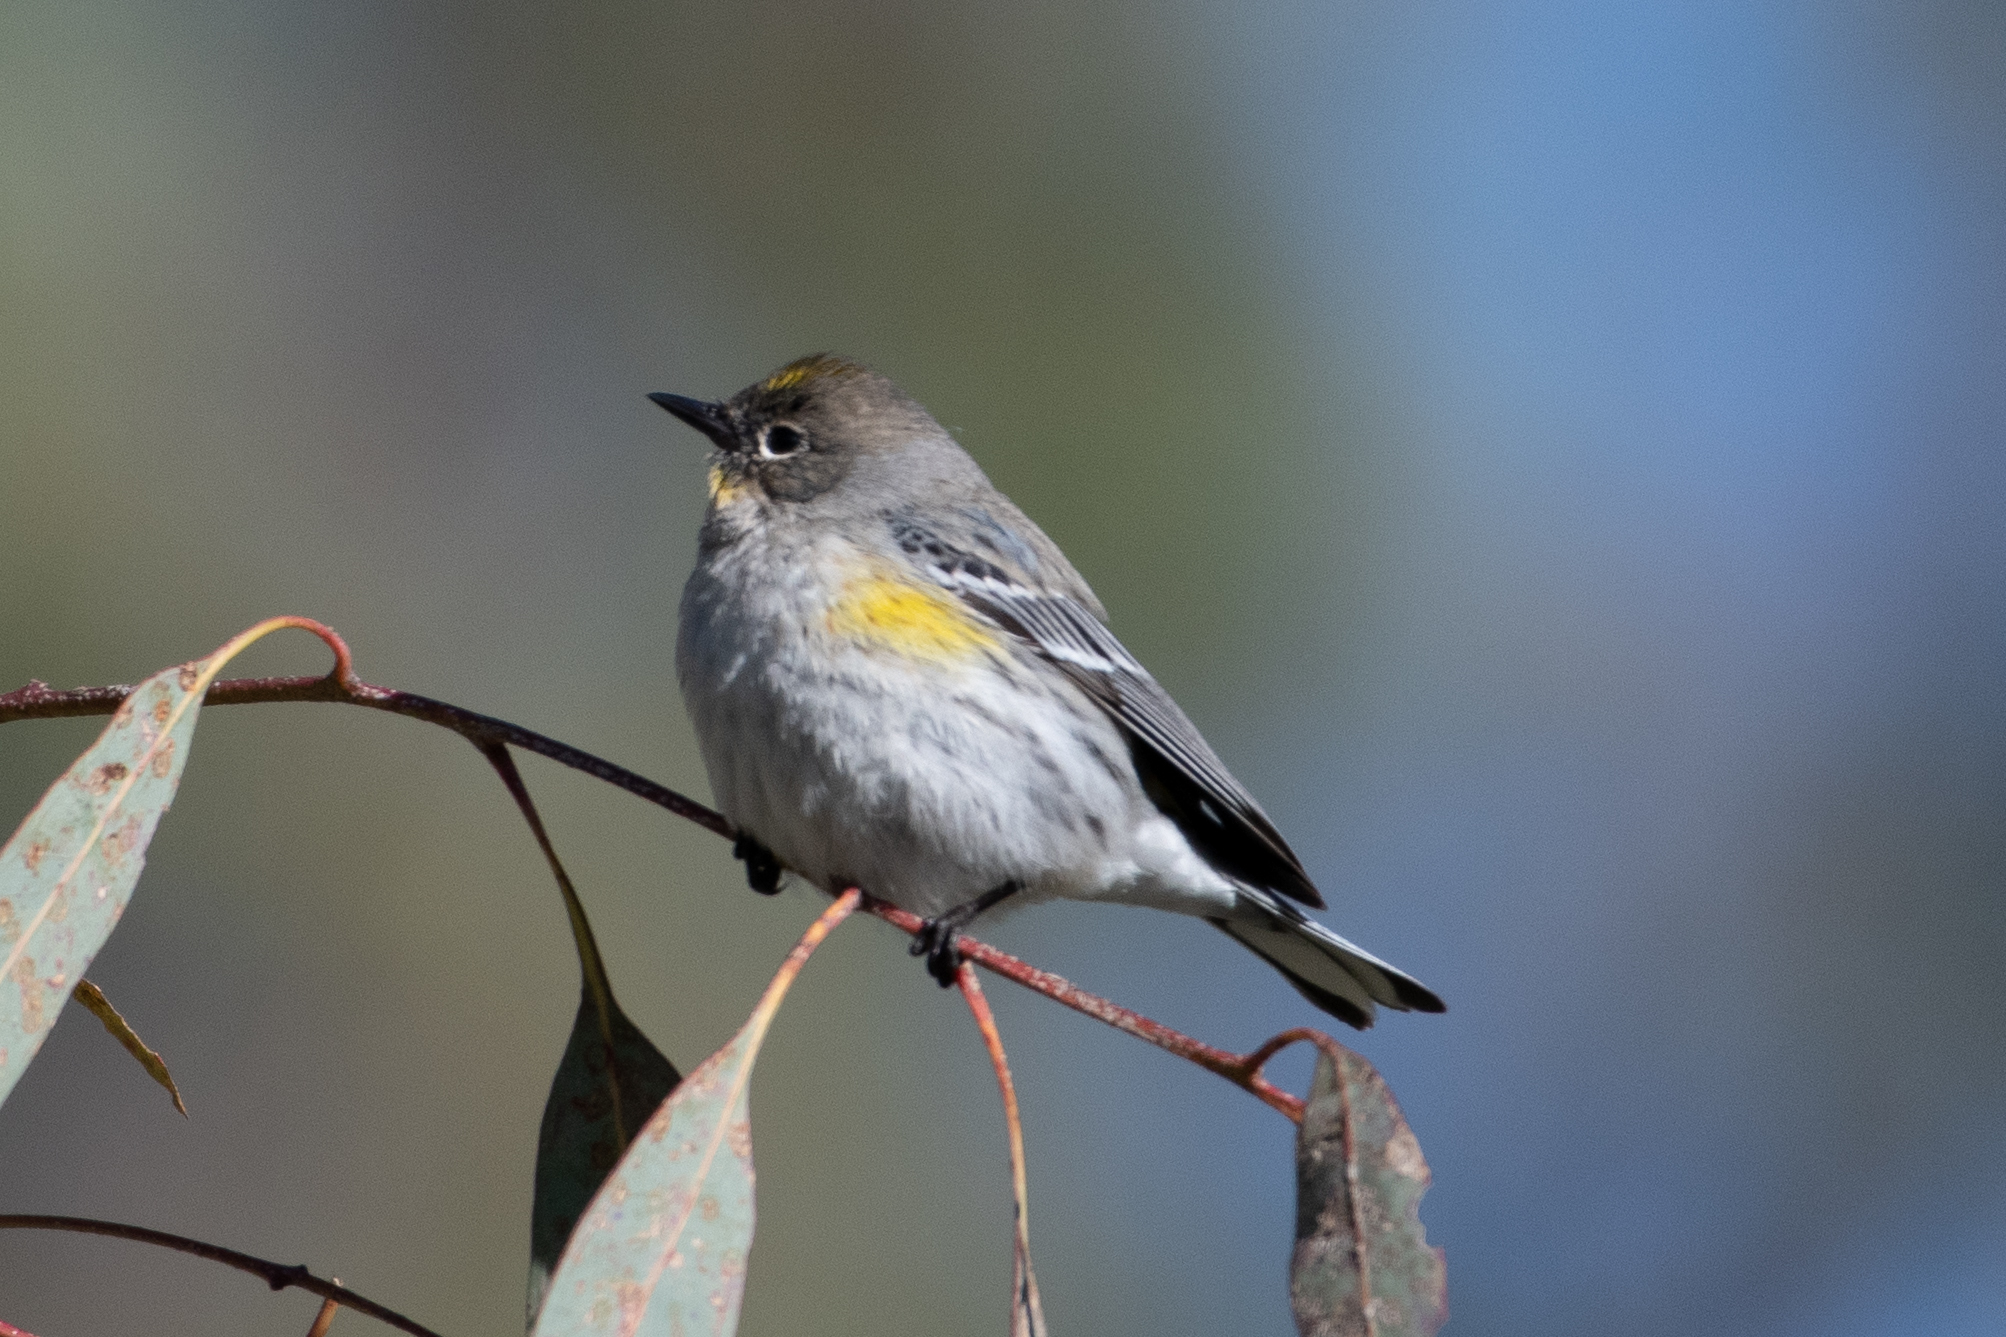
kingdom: Animalia
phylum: Chordata
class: Aves
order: Passeriformes
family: Parulidae
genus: Setophaga
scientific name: Setophaga coronata
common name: Myrtle warbler
